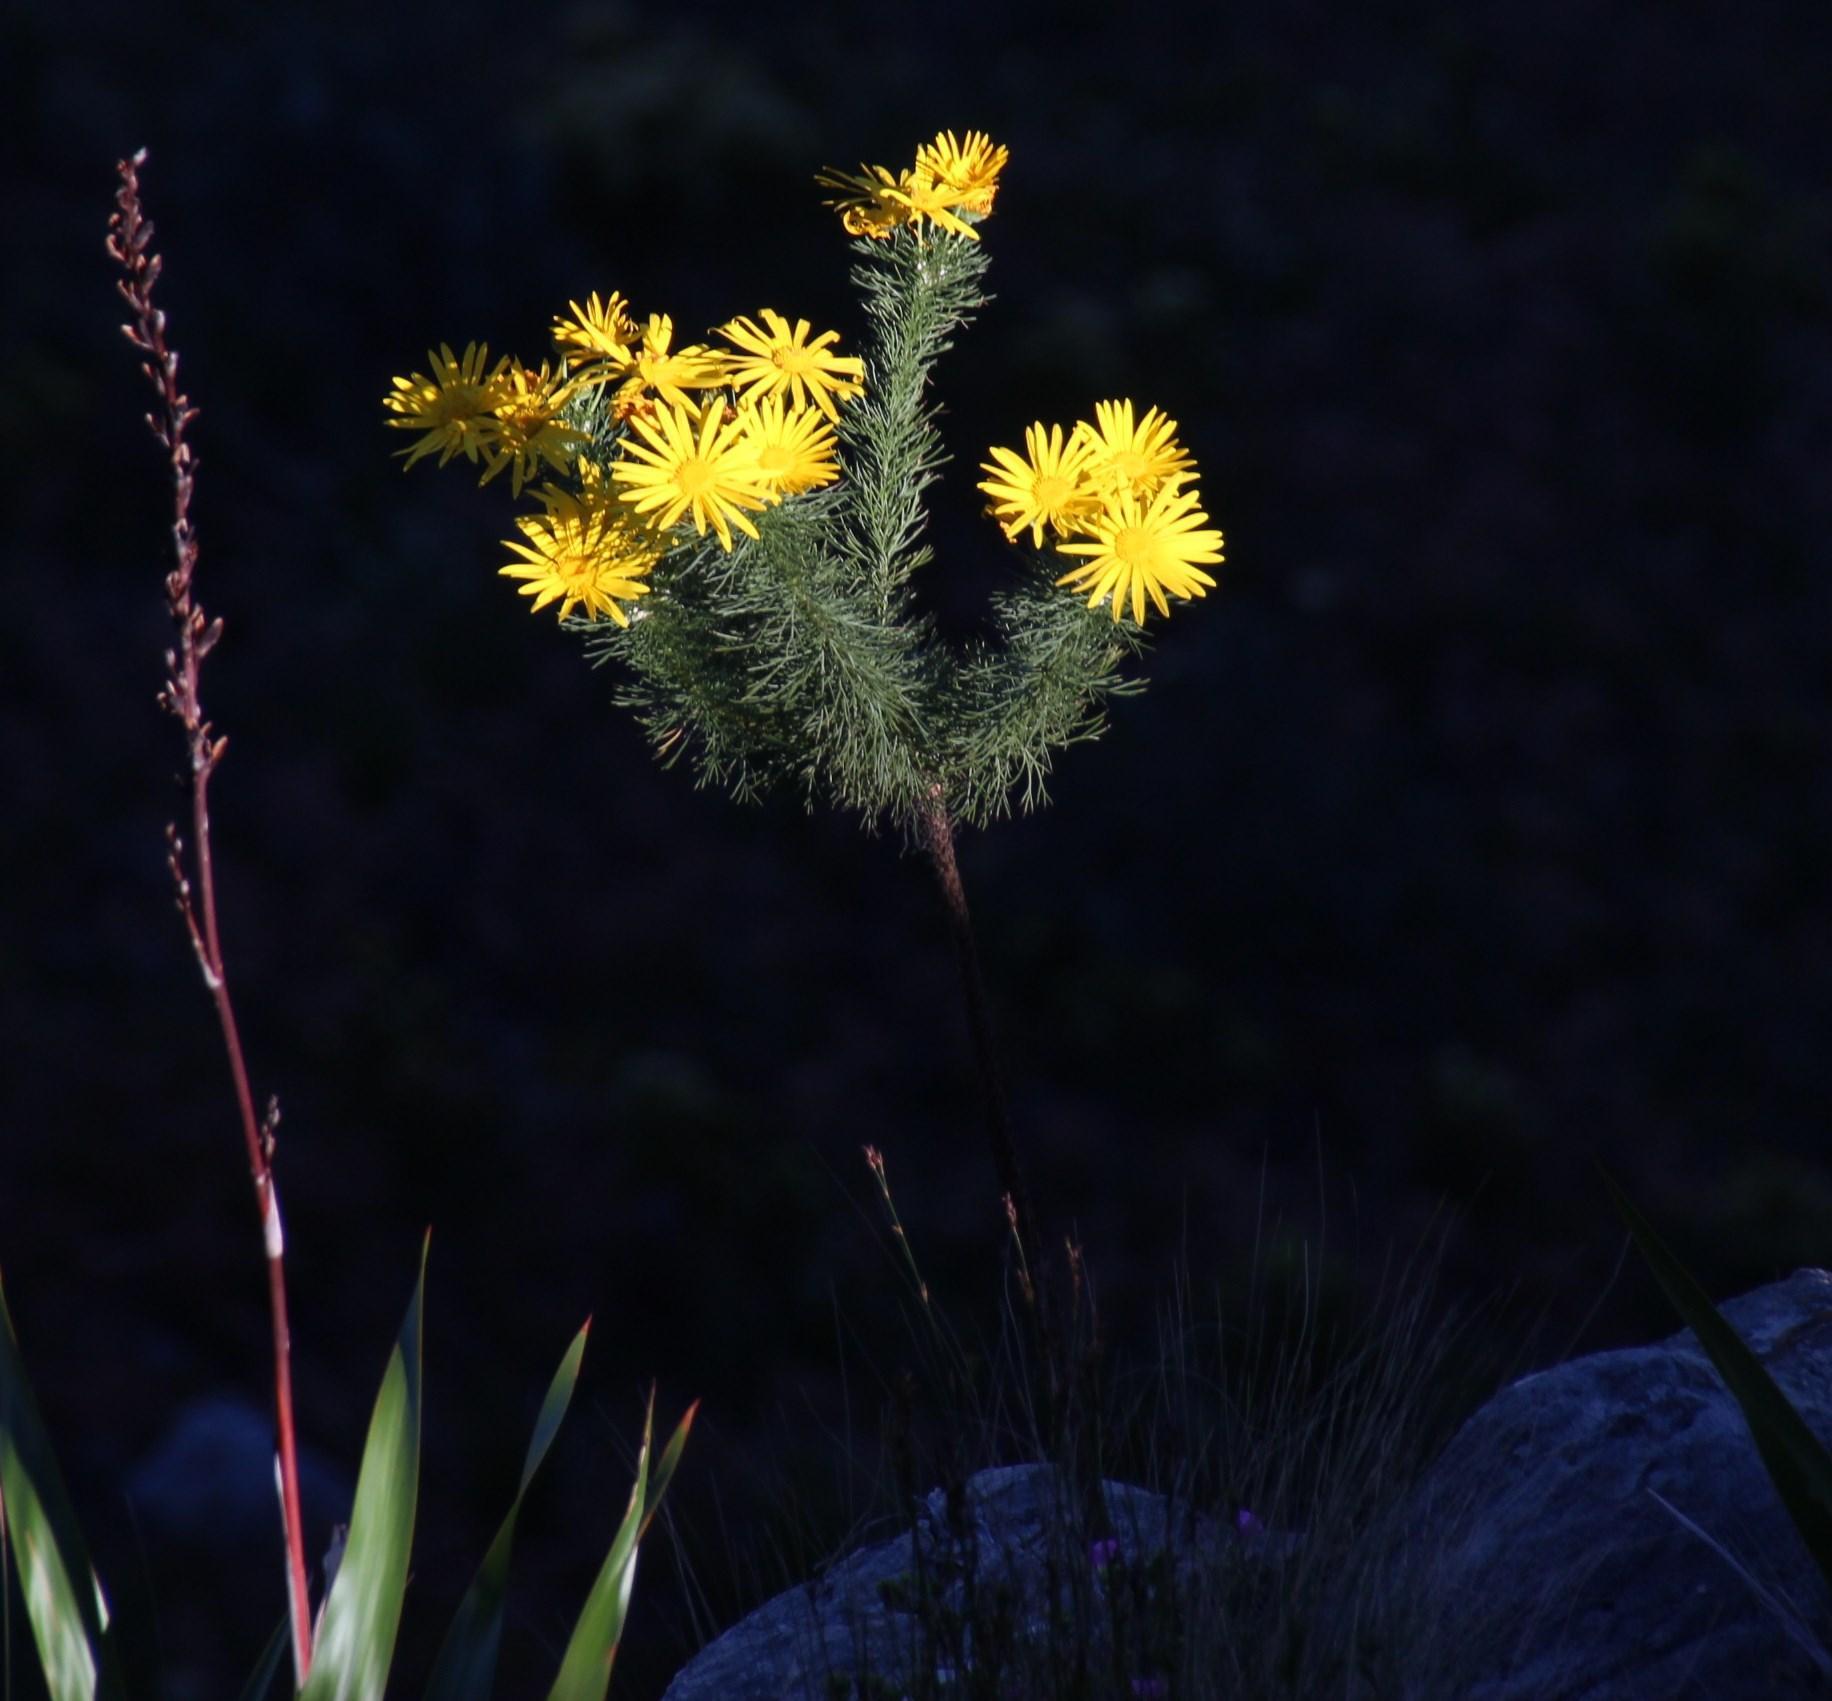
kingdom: Plantae
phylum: Tracheophyta
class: Magnoliopsida
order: Asterales
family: Asteraceae
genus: Euryops
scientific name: Euryops abrotanifolius
